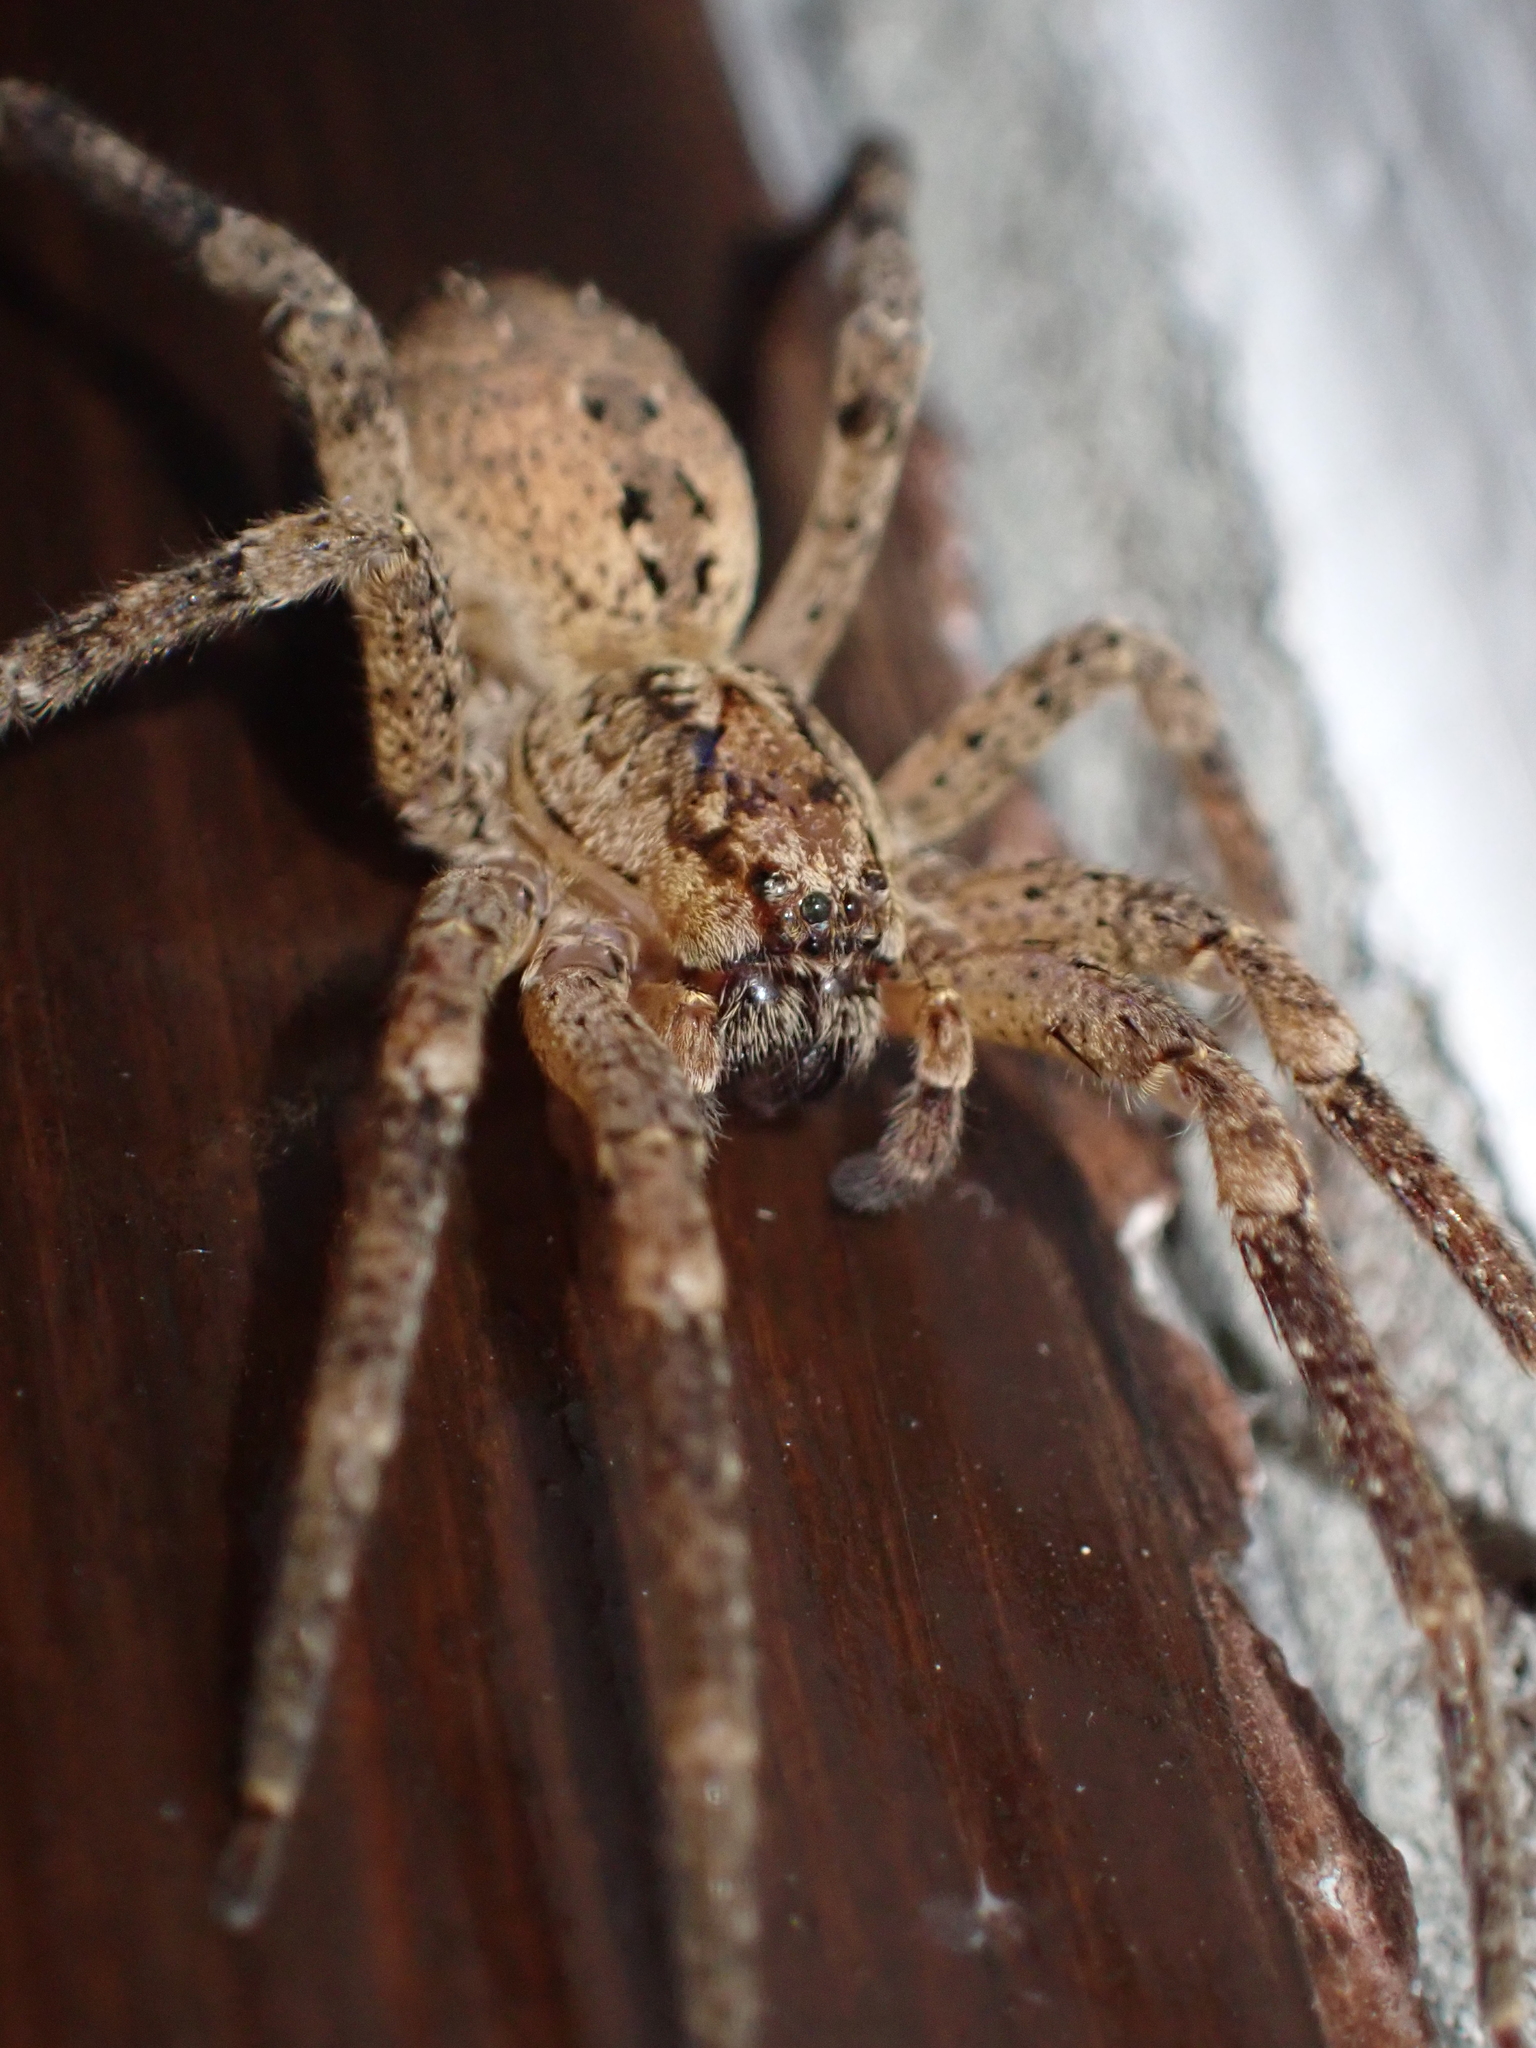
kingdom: Animalia
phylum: Arthropoda
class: Arachnida
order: Araneae
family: Zoropsidae
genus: Zoropsis
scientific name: Zoropsis spinimana
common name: Zoropsid spider
